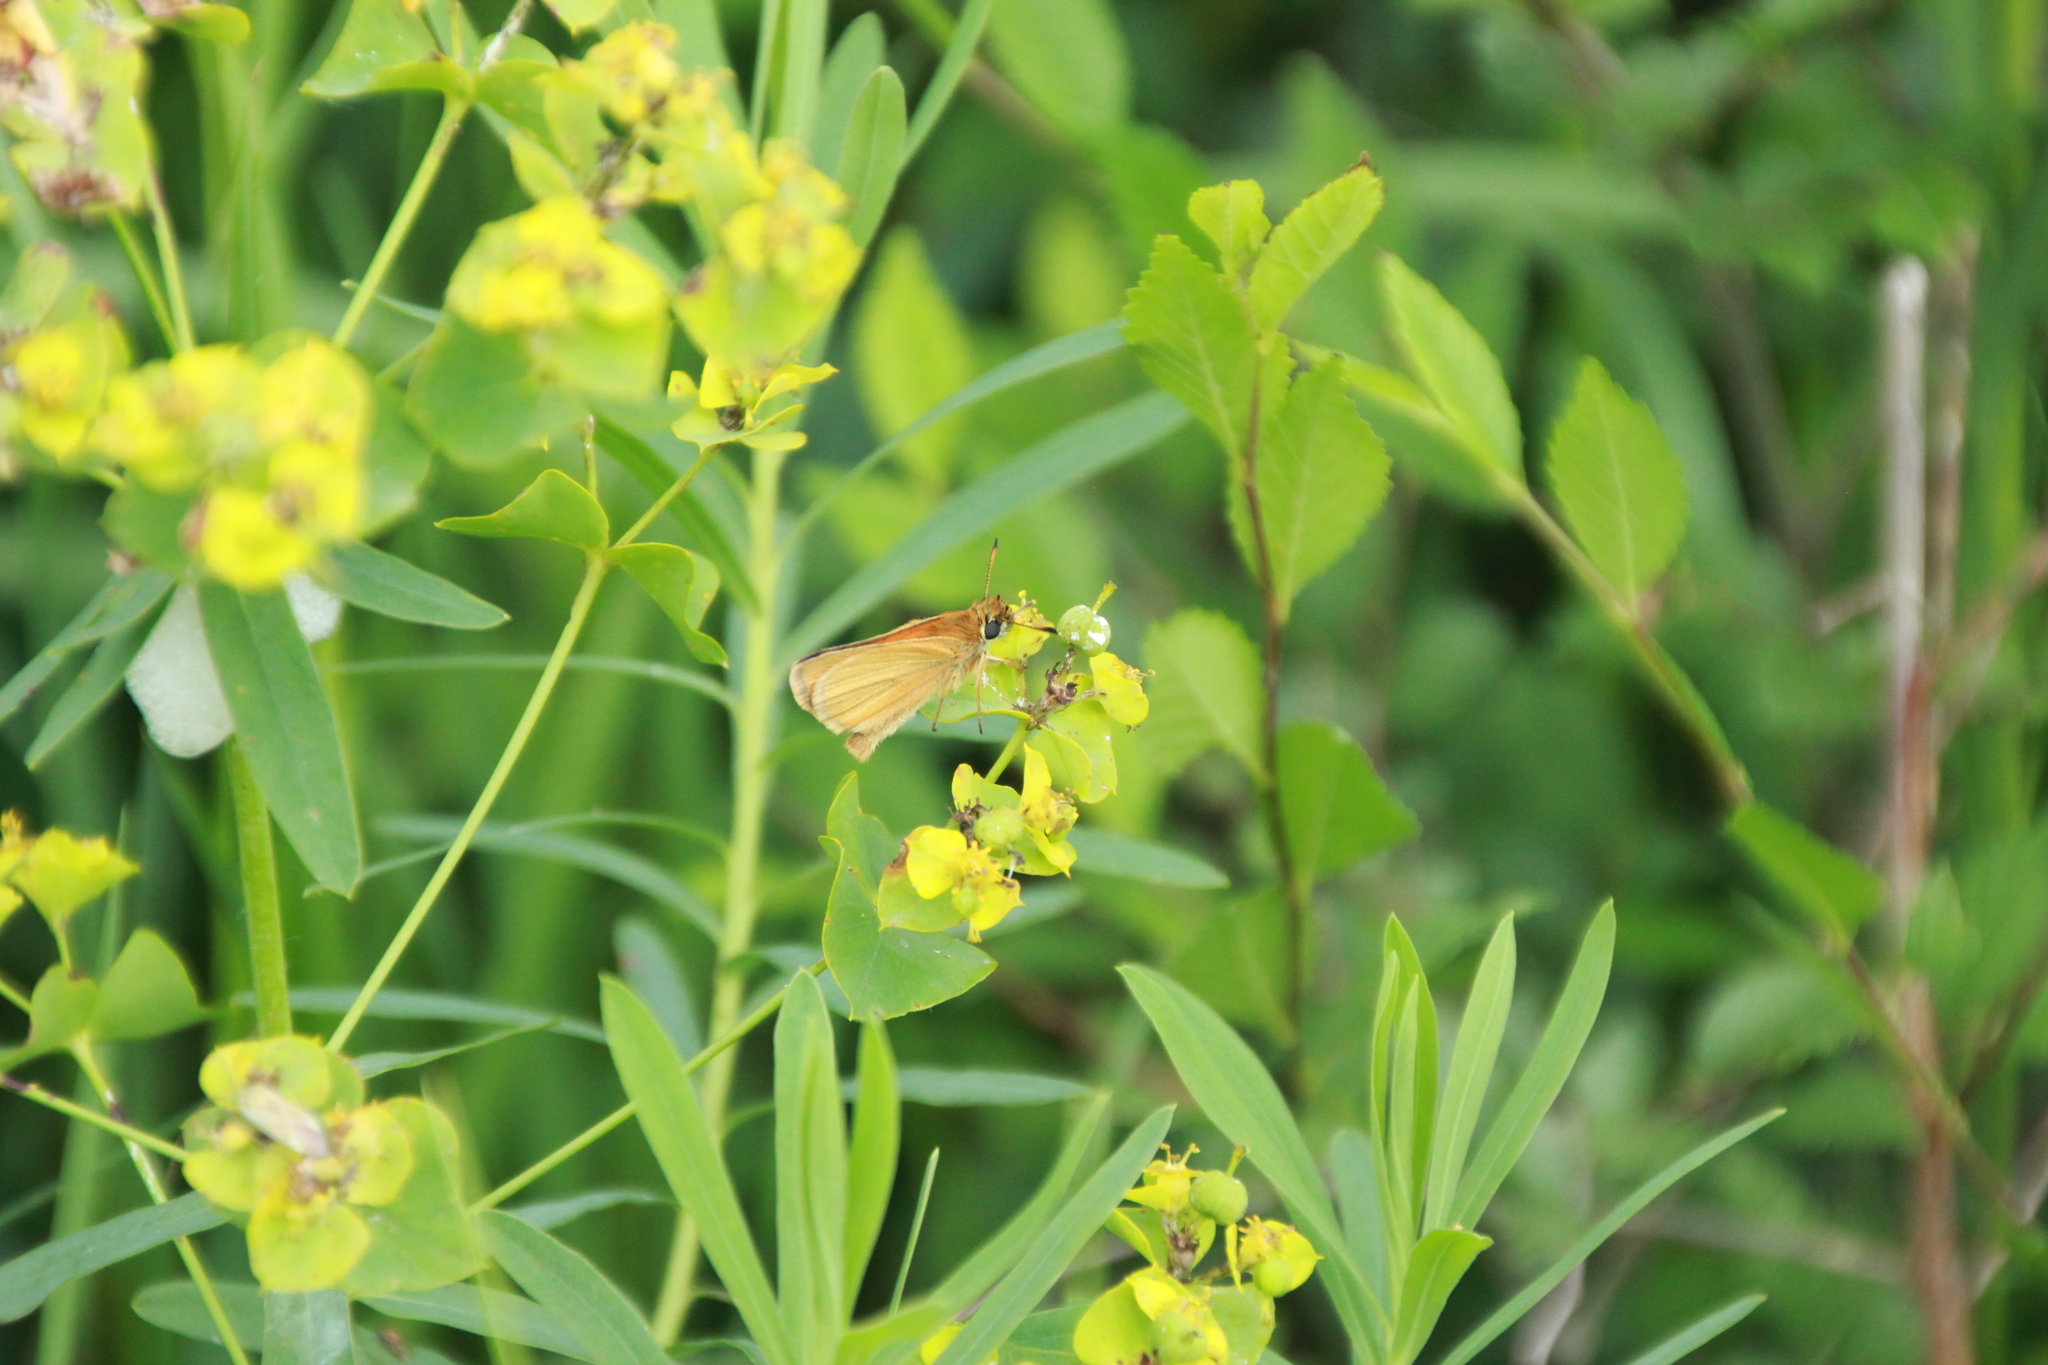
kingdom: Animalia
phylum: Arthropoda
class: Insecta
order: Lepidoptera
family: Hesperiidae
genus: Thymelicus
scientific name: Thymelicus lineola
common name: Essex skipper
